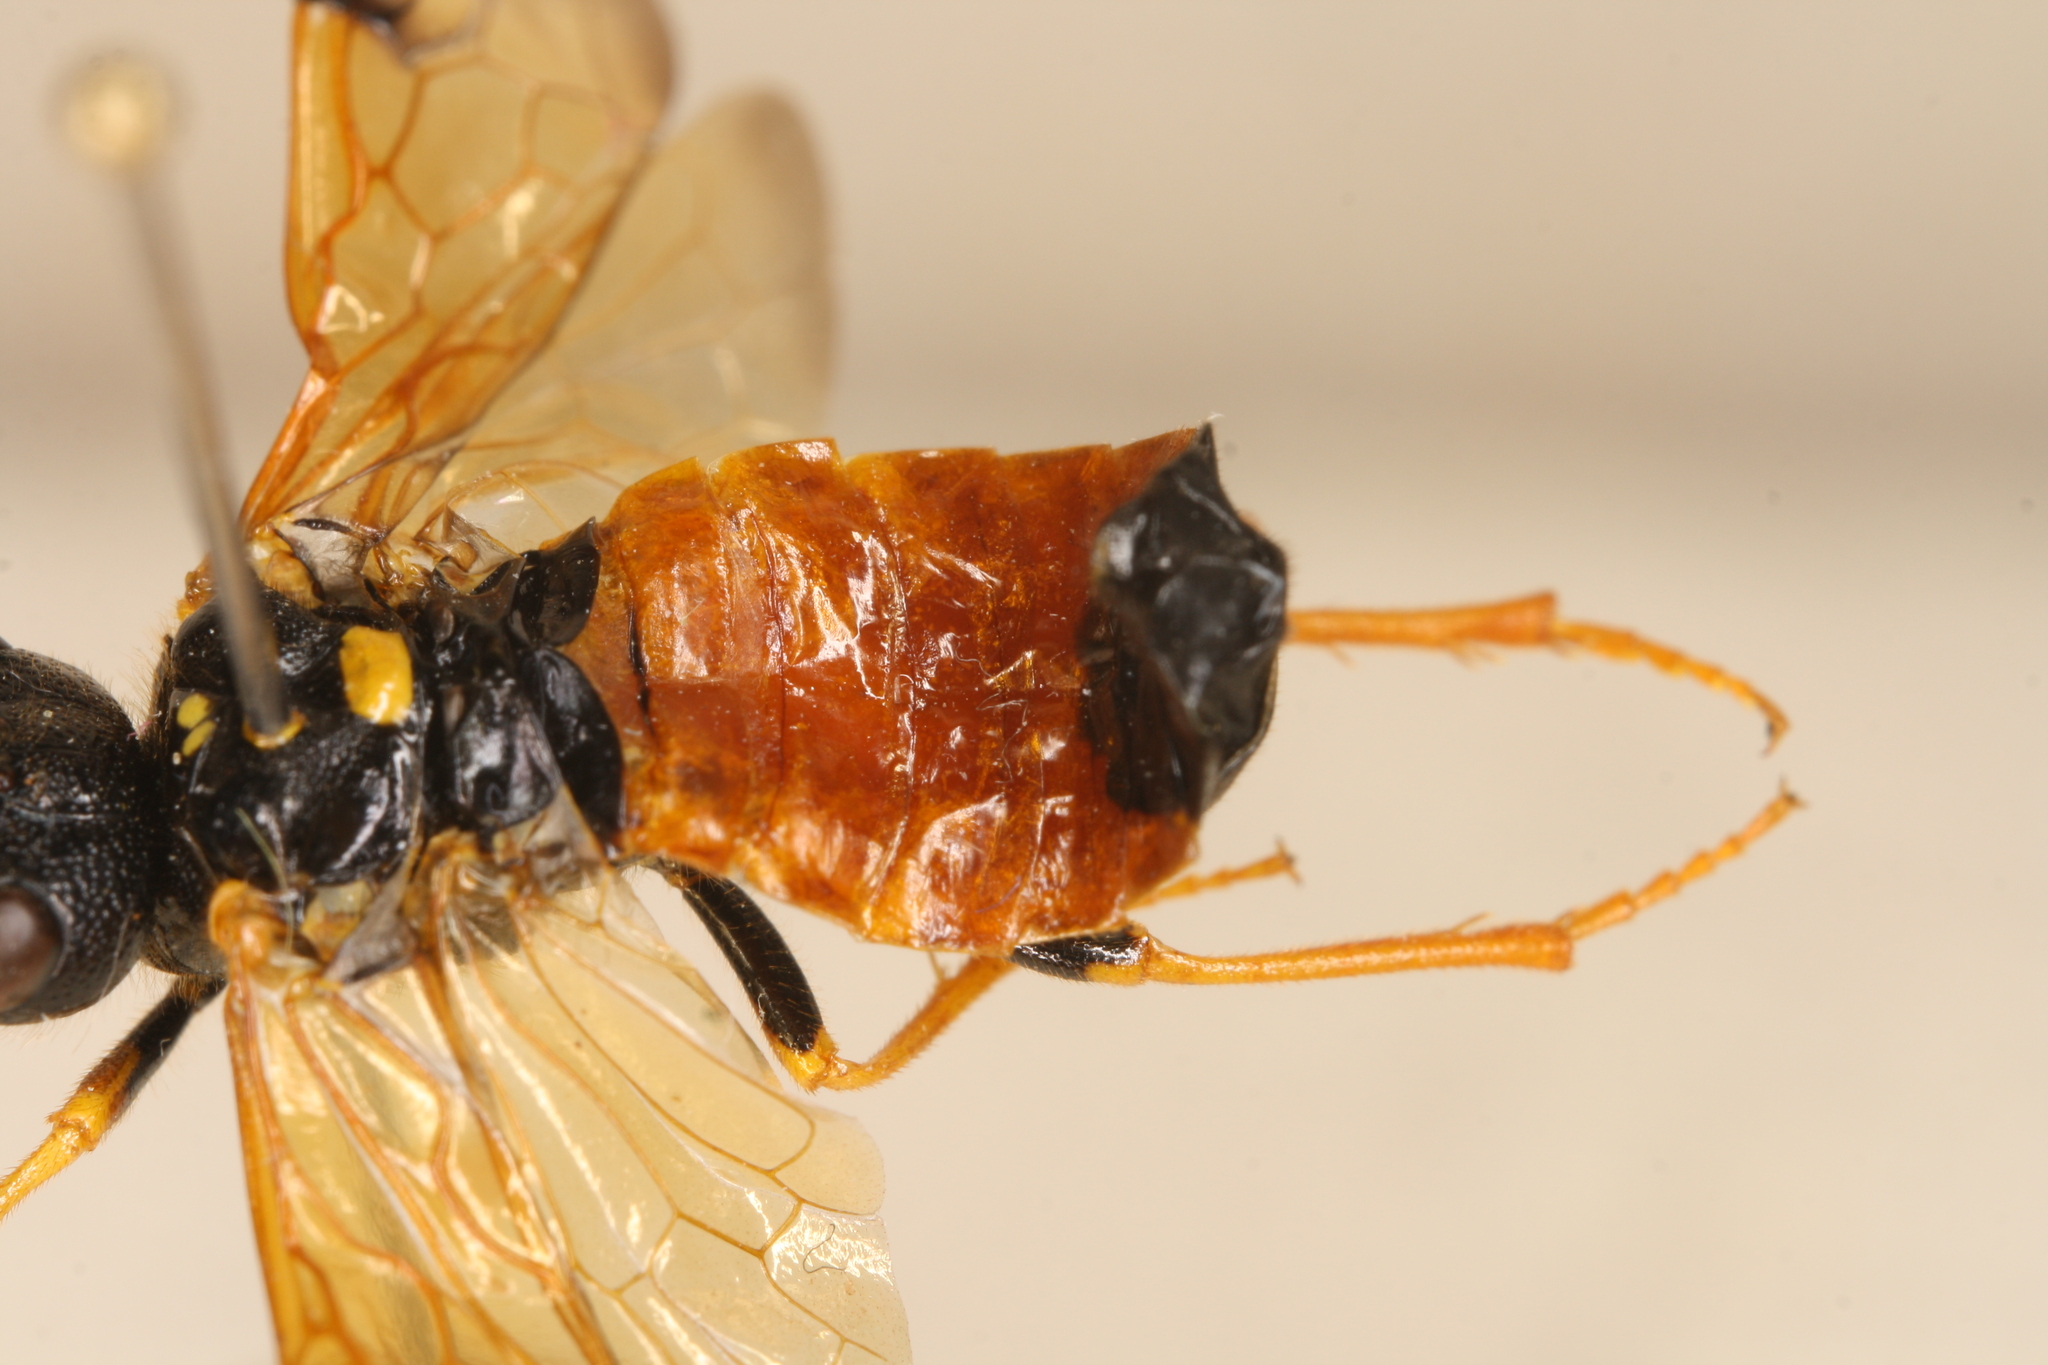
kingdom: Animalia
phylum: Arthropoda
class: Insecta
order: Hymenoptera
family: Pamphiliidae
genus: Acantholyda
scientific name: Acantholyda hieroglyphica
